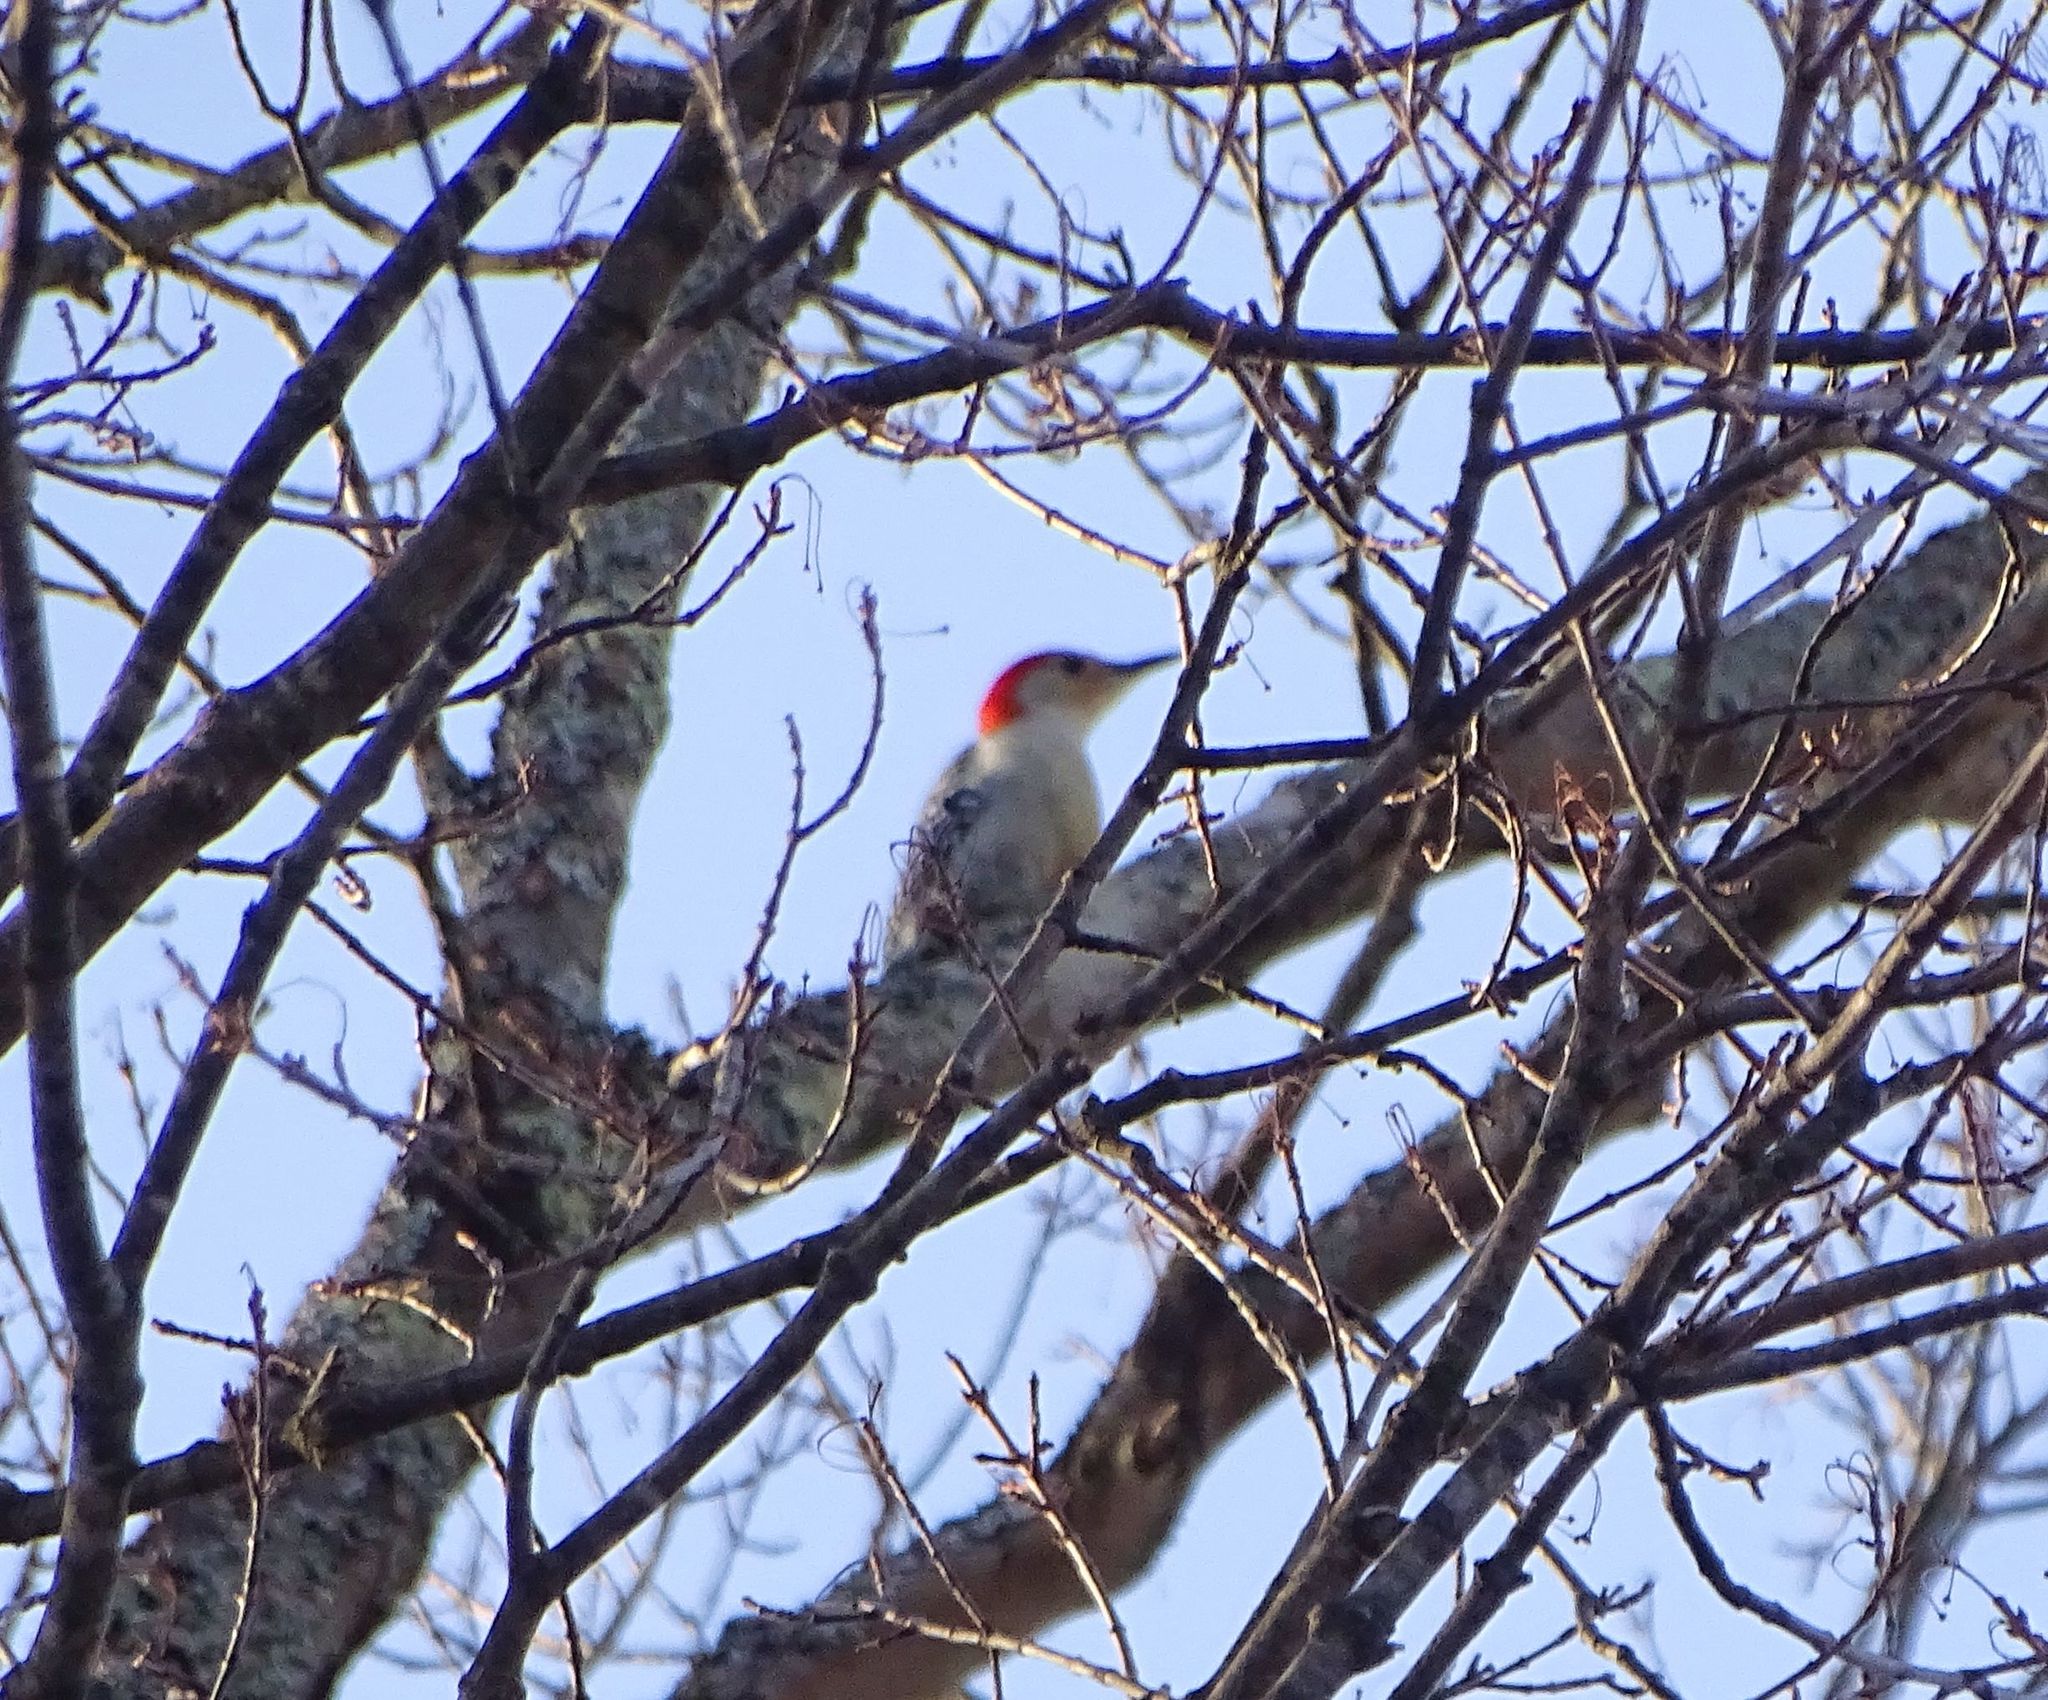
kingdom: Animalia
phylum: Chordata
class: Aves
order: Piciformes
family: Picidae
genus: Melanerpes
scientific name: Melanerpes carolinus
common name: Red-bellied woodpecker
